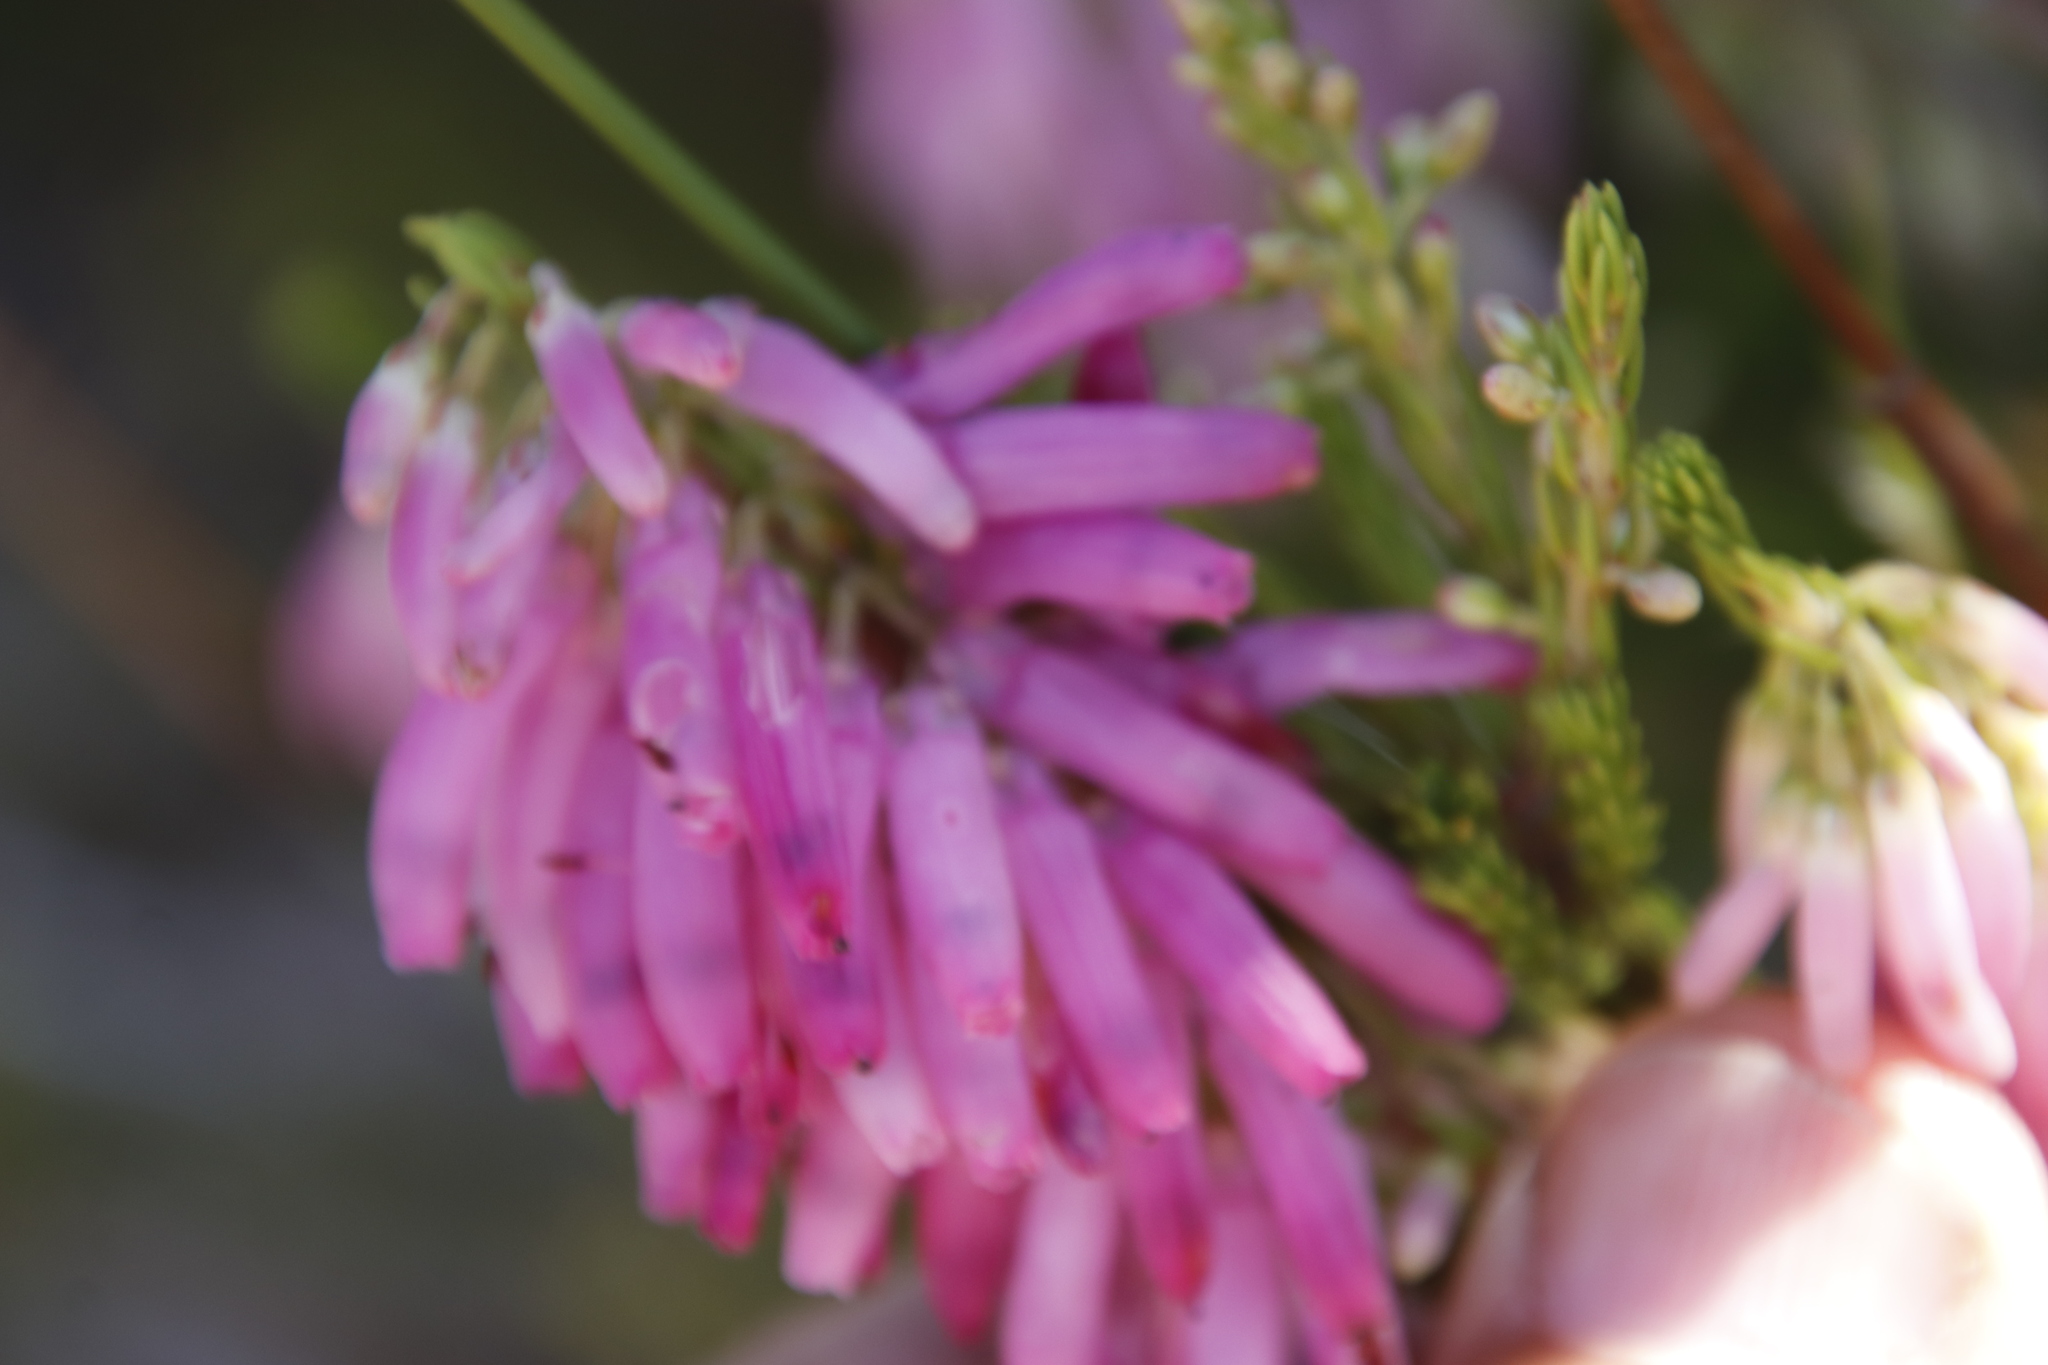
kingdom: Plantae
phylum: Tracheophyta
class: Magnoliopsida
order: Ericales
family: Ericaceae
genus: Erica
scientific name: Erica mammosa
